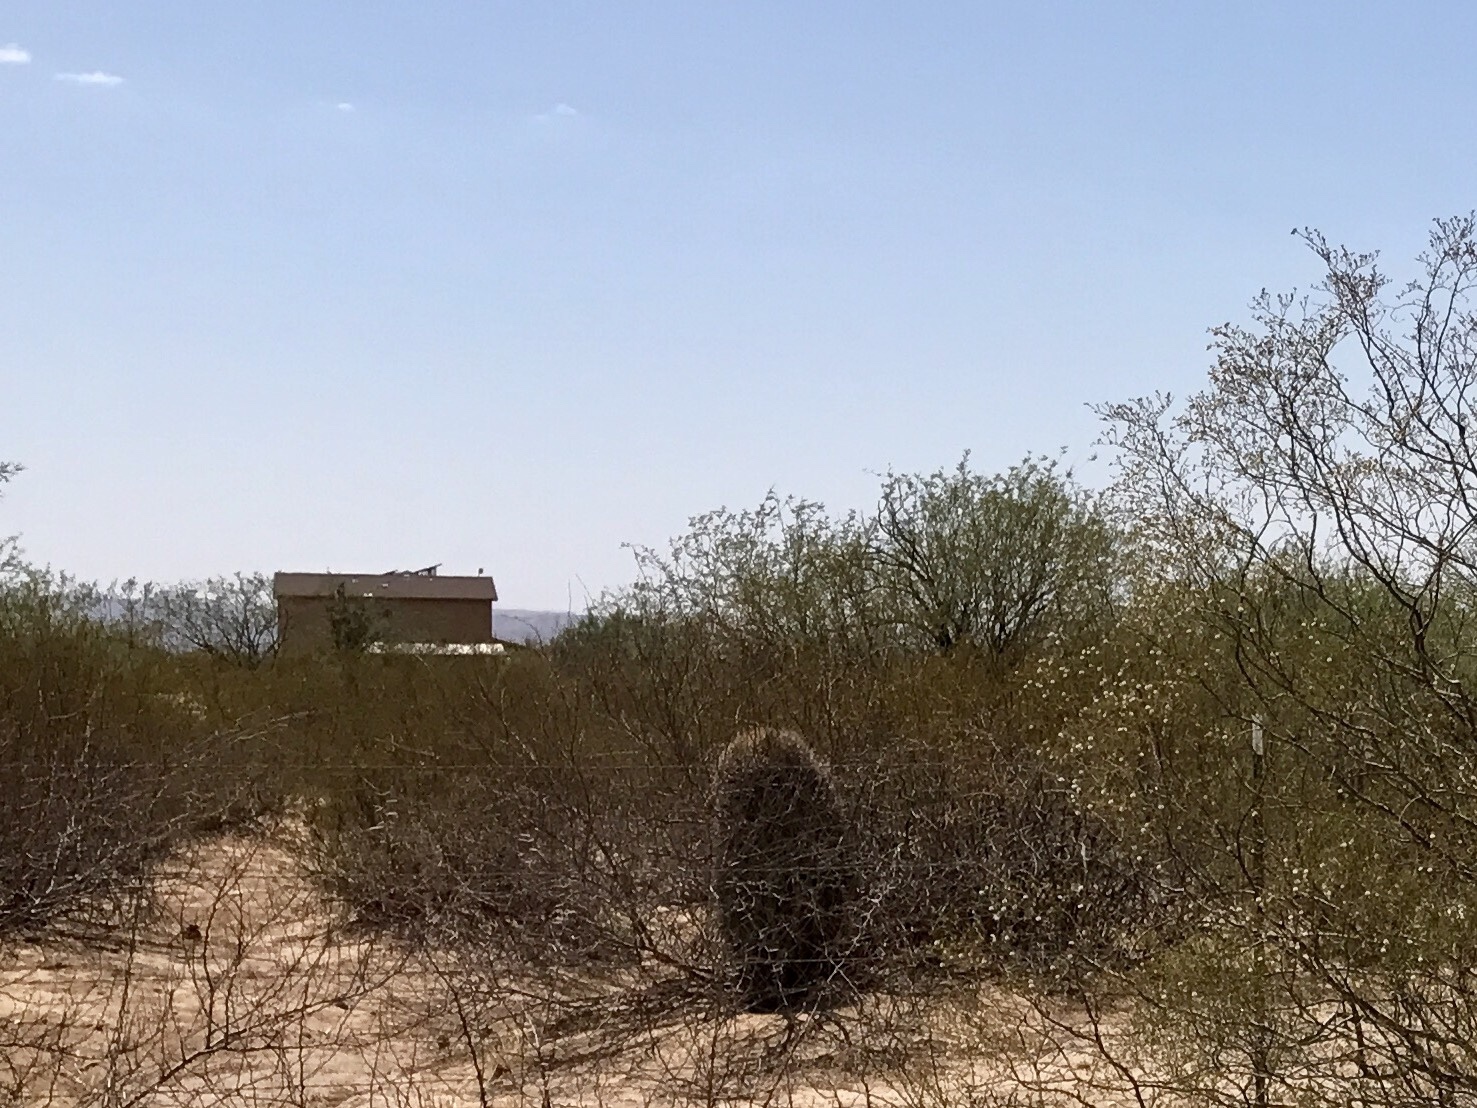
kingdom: Plantae
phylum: Tracheophyta
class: Magnoliopsida
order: Zygophyllales
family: Zygophyllaceae
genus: Larrea
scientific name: Larrea tridentata
